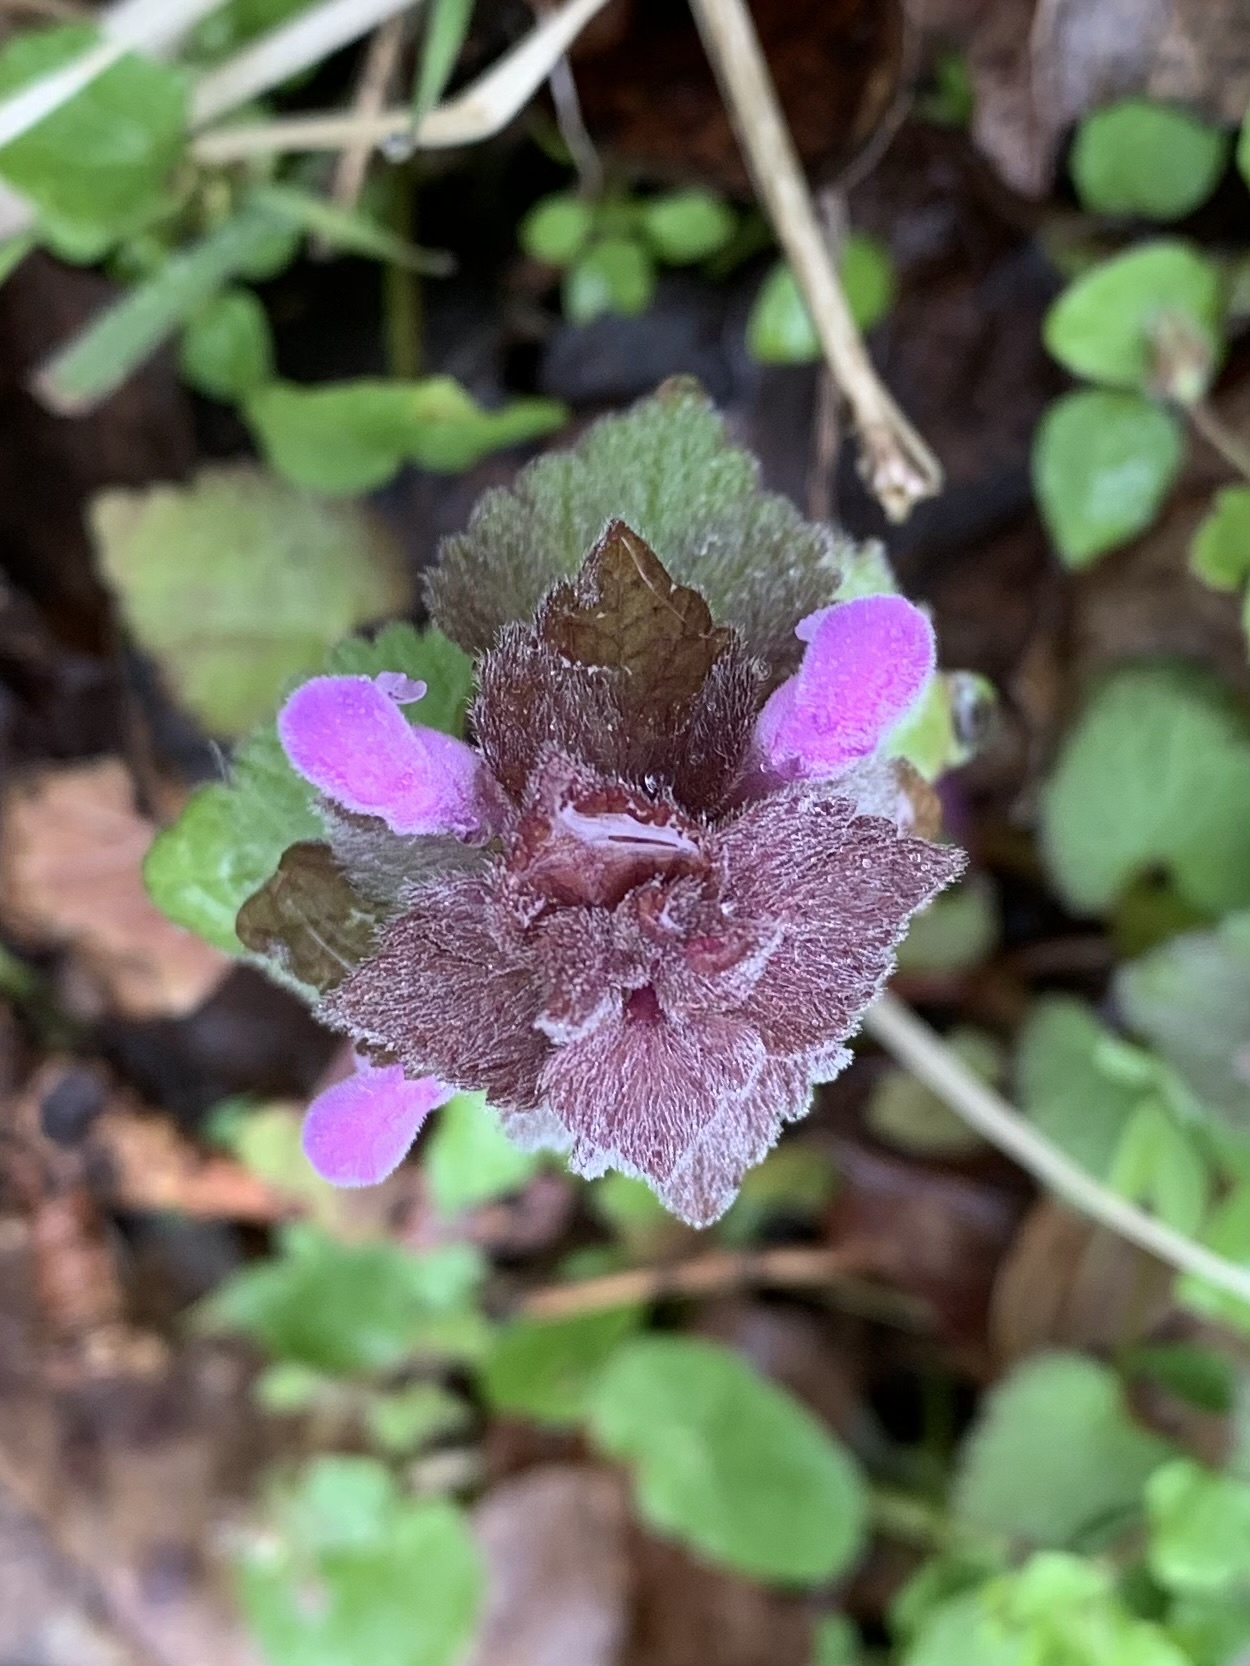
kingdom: Plantae
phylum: Tracheophyta
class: Magnoliopsida
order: Lamiales
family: Lamiaceae
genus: Lamium
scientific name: Lamium purpureum
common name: Red dead-nettle
